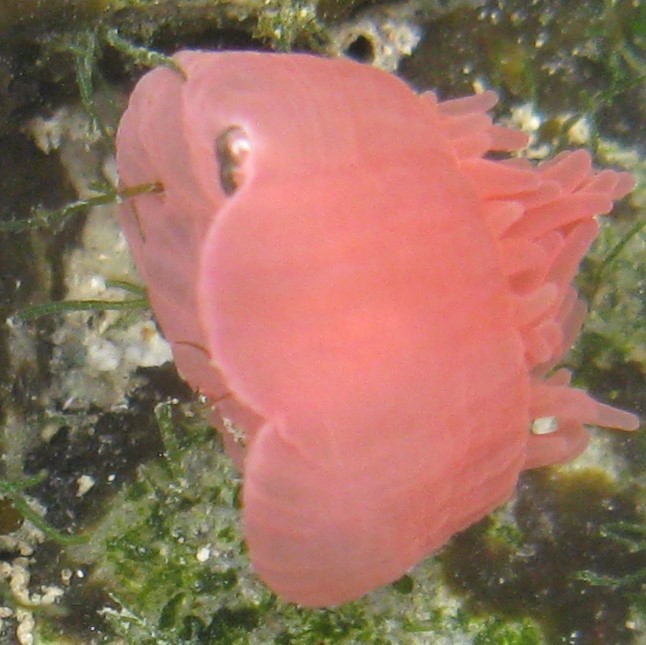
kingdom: Animalia
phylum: Cnidaria
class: Anthozoa
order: Actiniaria
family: Actiniidae
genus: Actinia
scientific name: Actinia tenebrosa
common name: Waratah anemone
